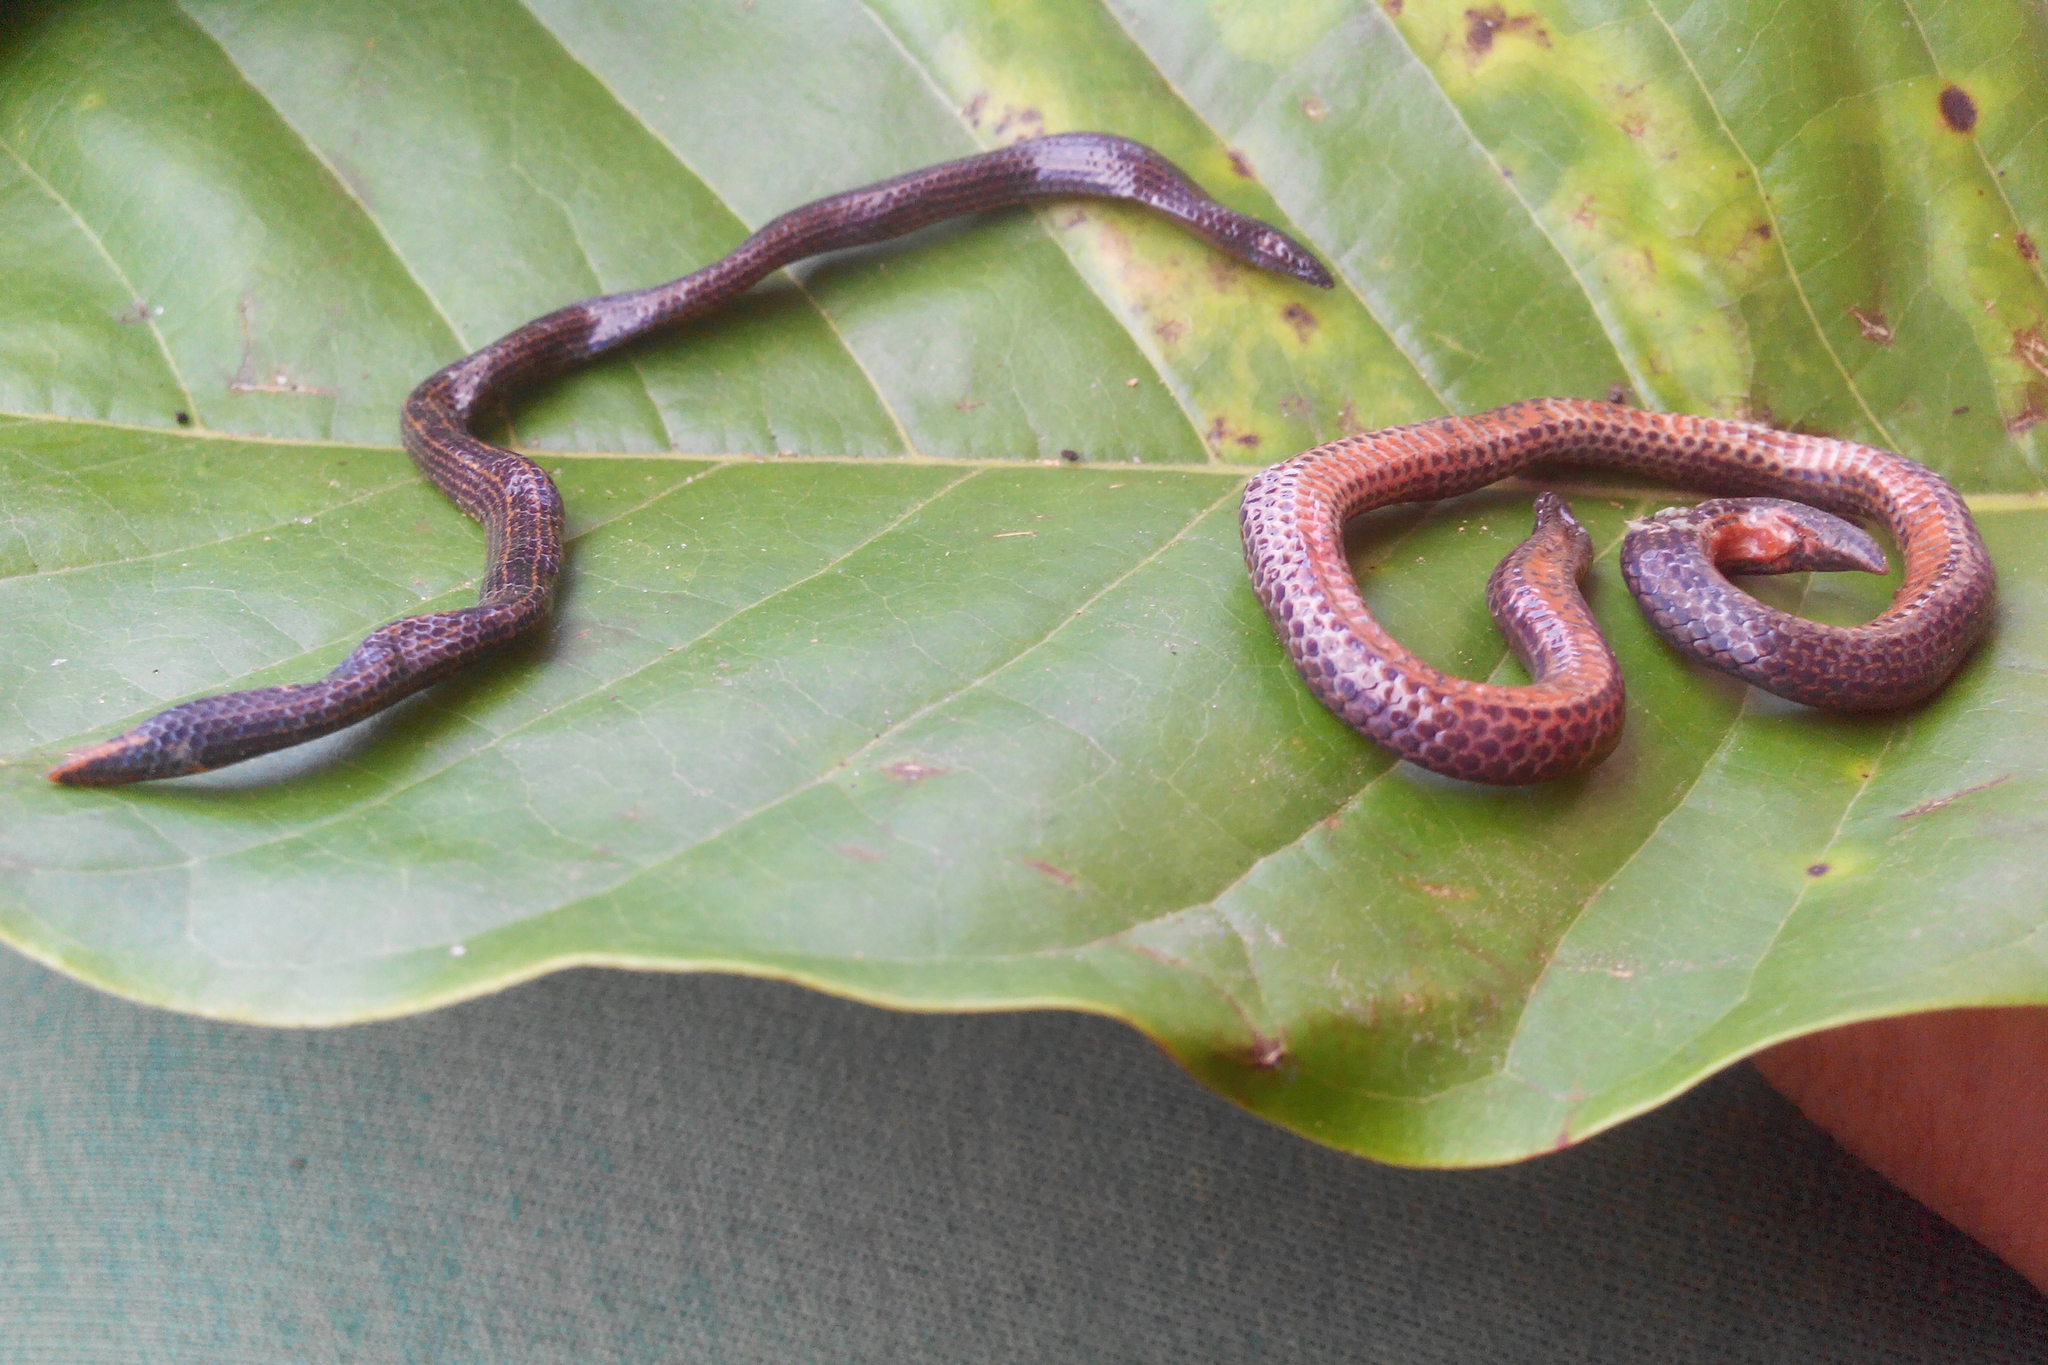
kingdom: Animalia
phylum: Chordata
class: Squamata
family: Uropeltidae
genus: Teretrurus
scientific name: Teretrurus
